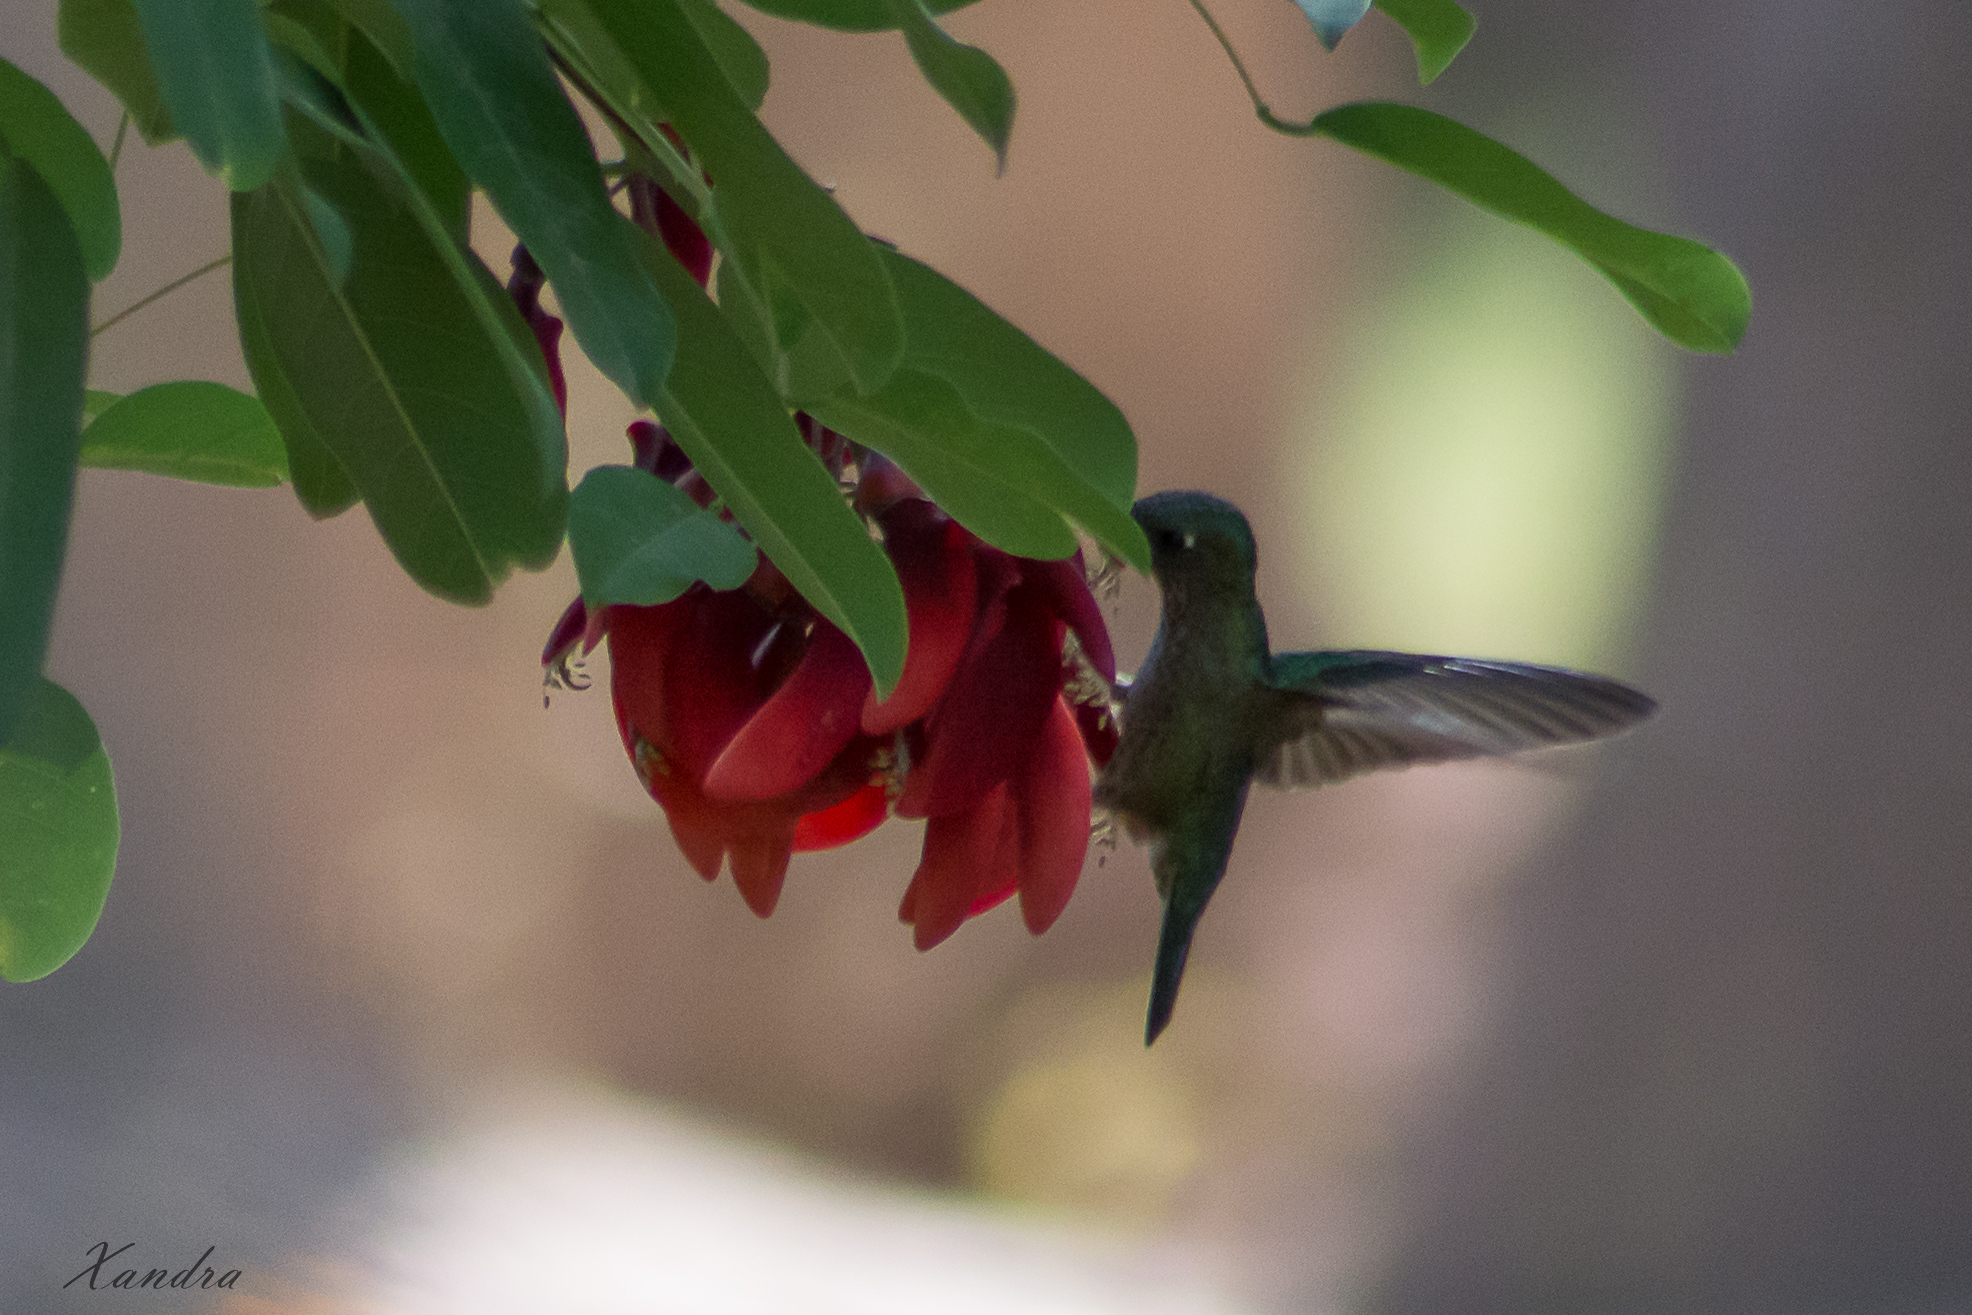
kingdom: Animalia
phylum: Chordata
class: Aves
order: Apodiformes
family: Trochilidae
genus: Sephanoides
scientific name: Sephanoides sephaniodes
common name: Green-backed firecrown
